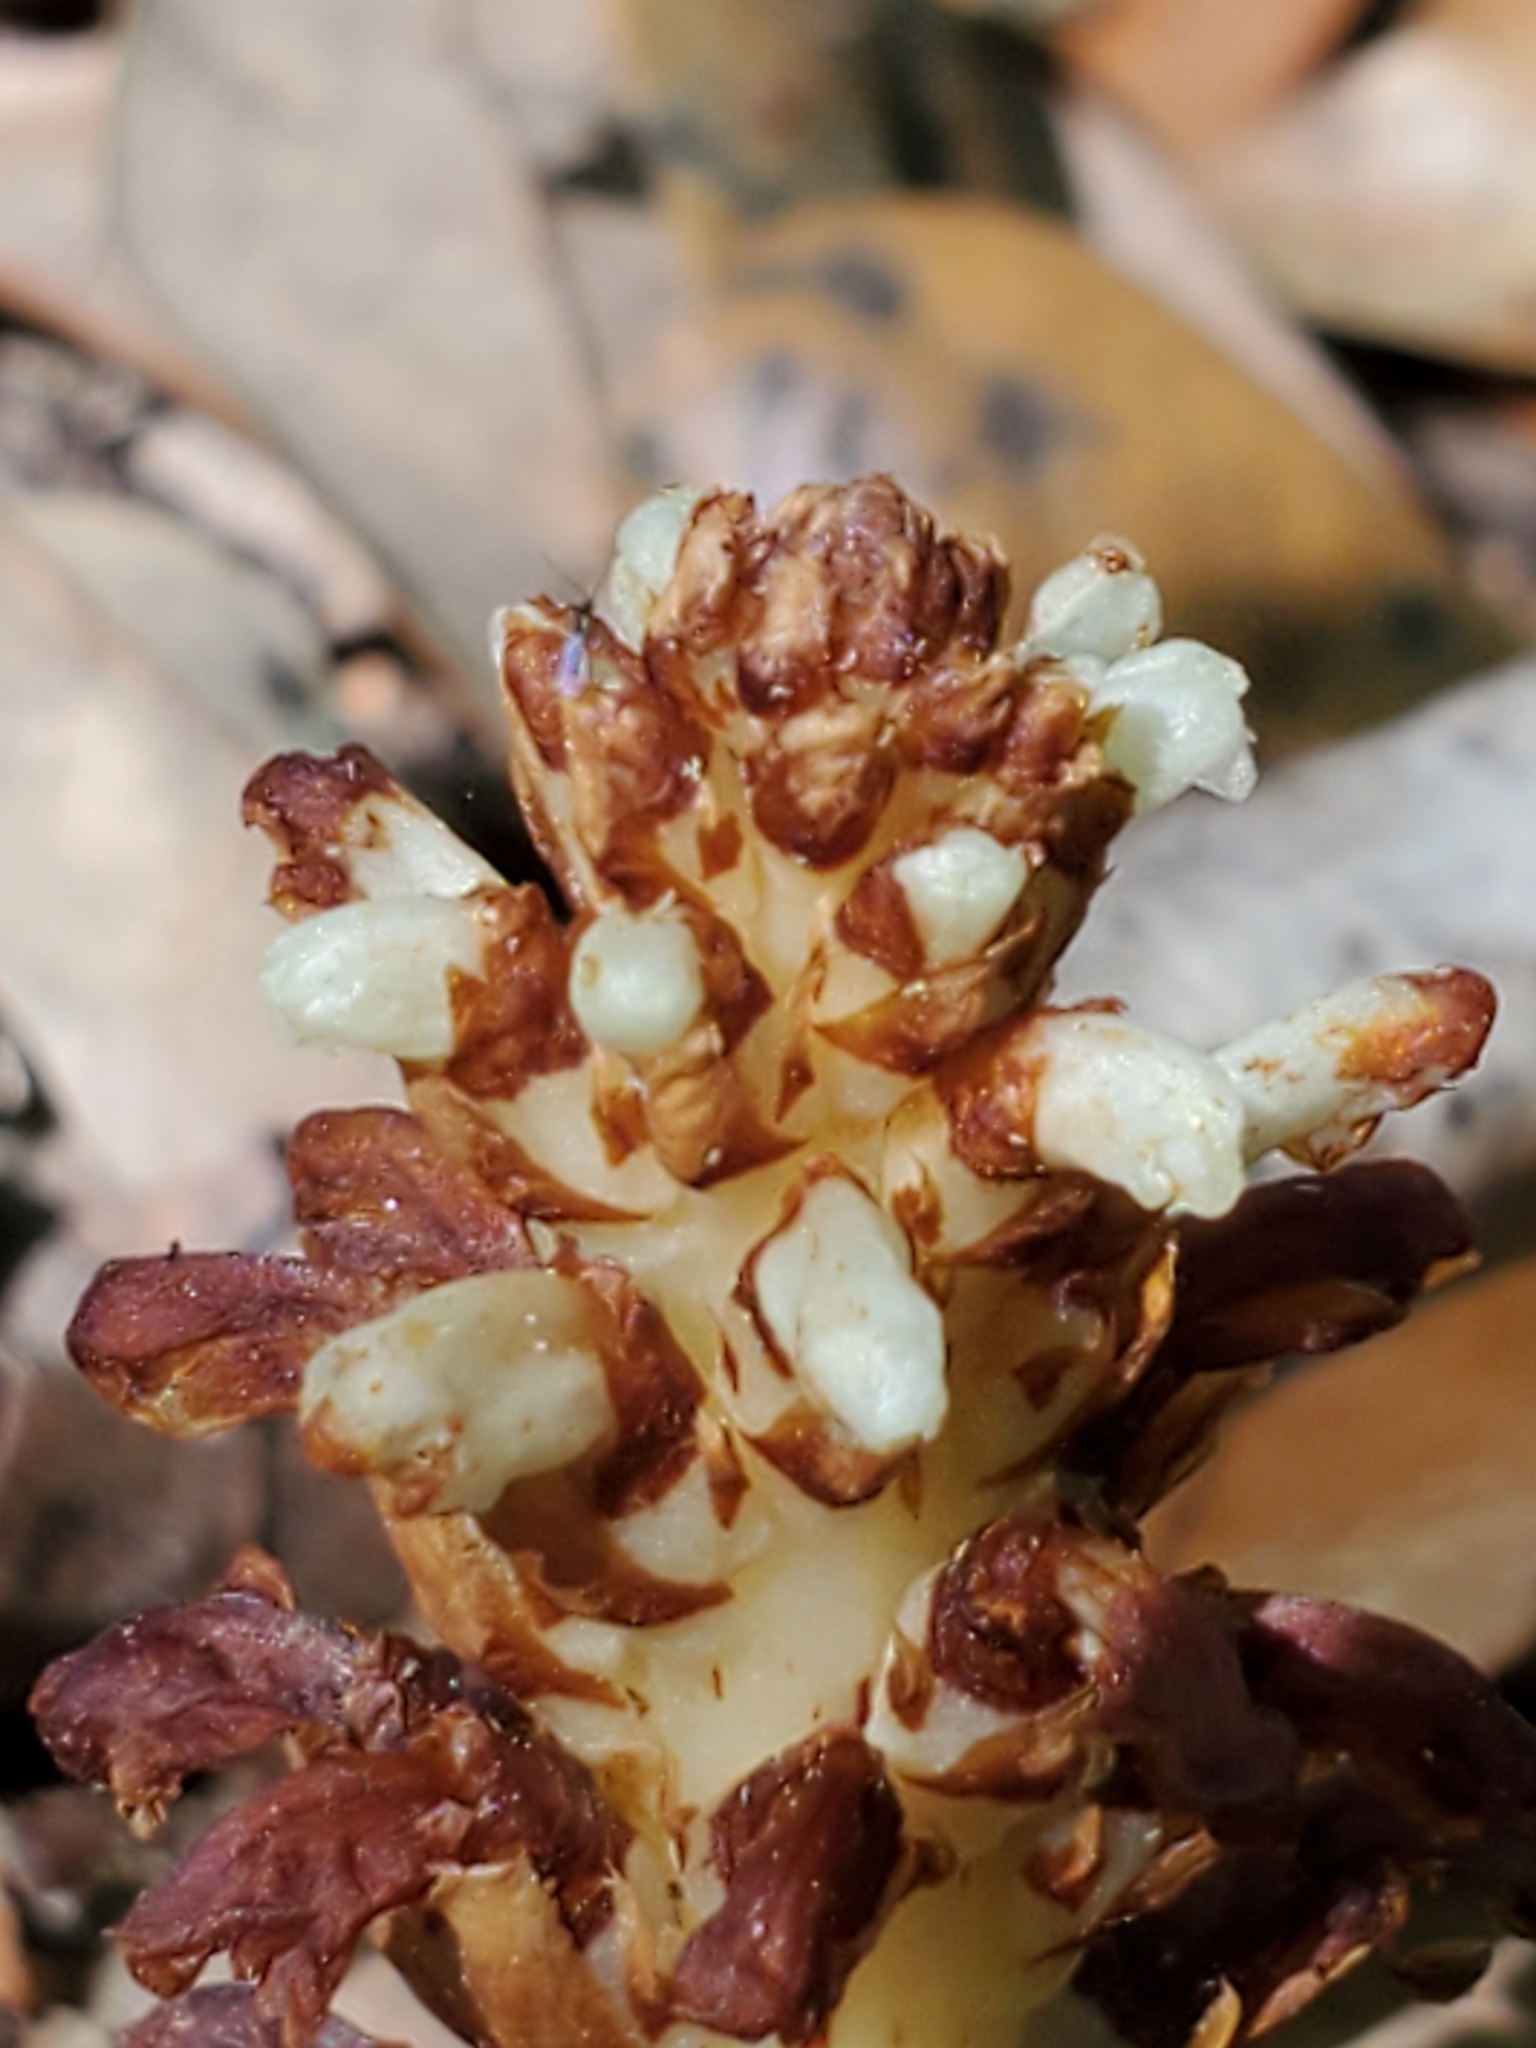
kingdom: Plantae
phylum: Tracheophyta
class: Magnoliopsida
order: Lamiales
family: Orobanchaceae
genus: Conopholis
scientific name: Conopholis americana
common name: American cancer-root
